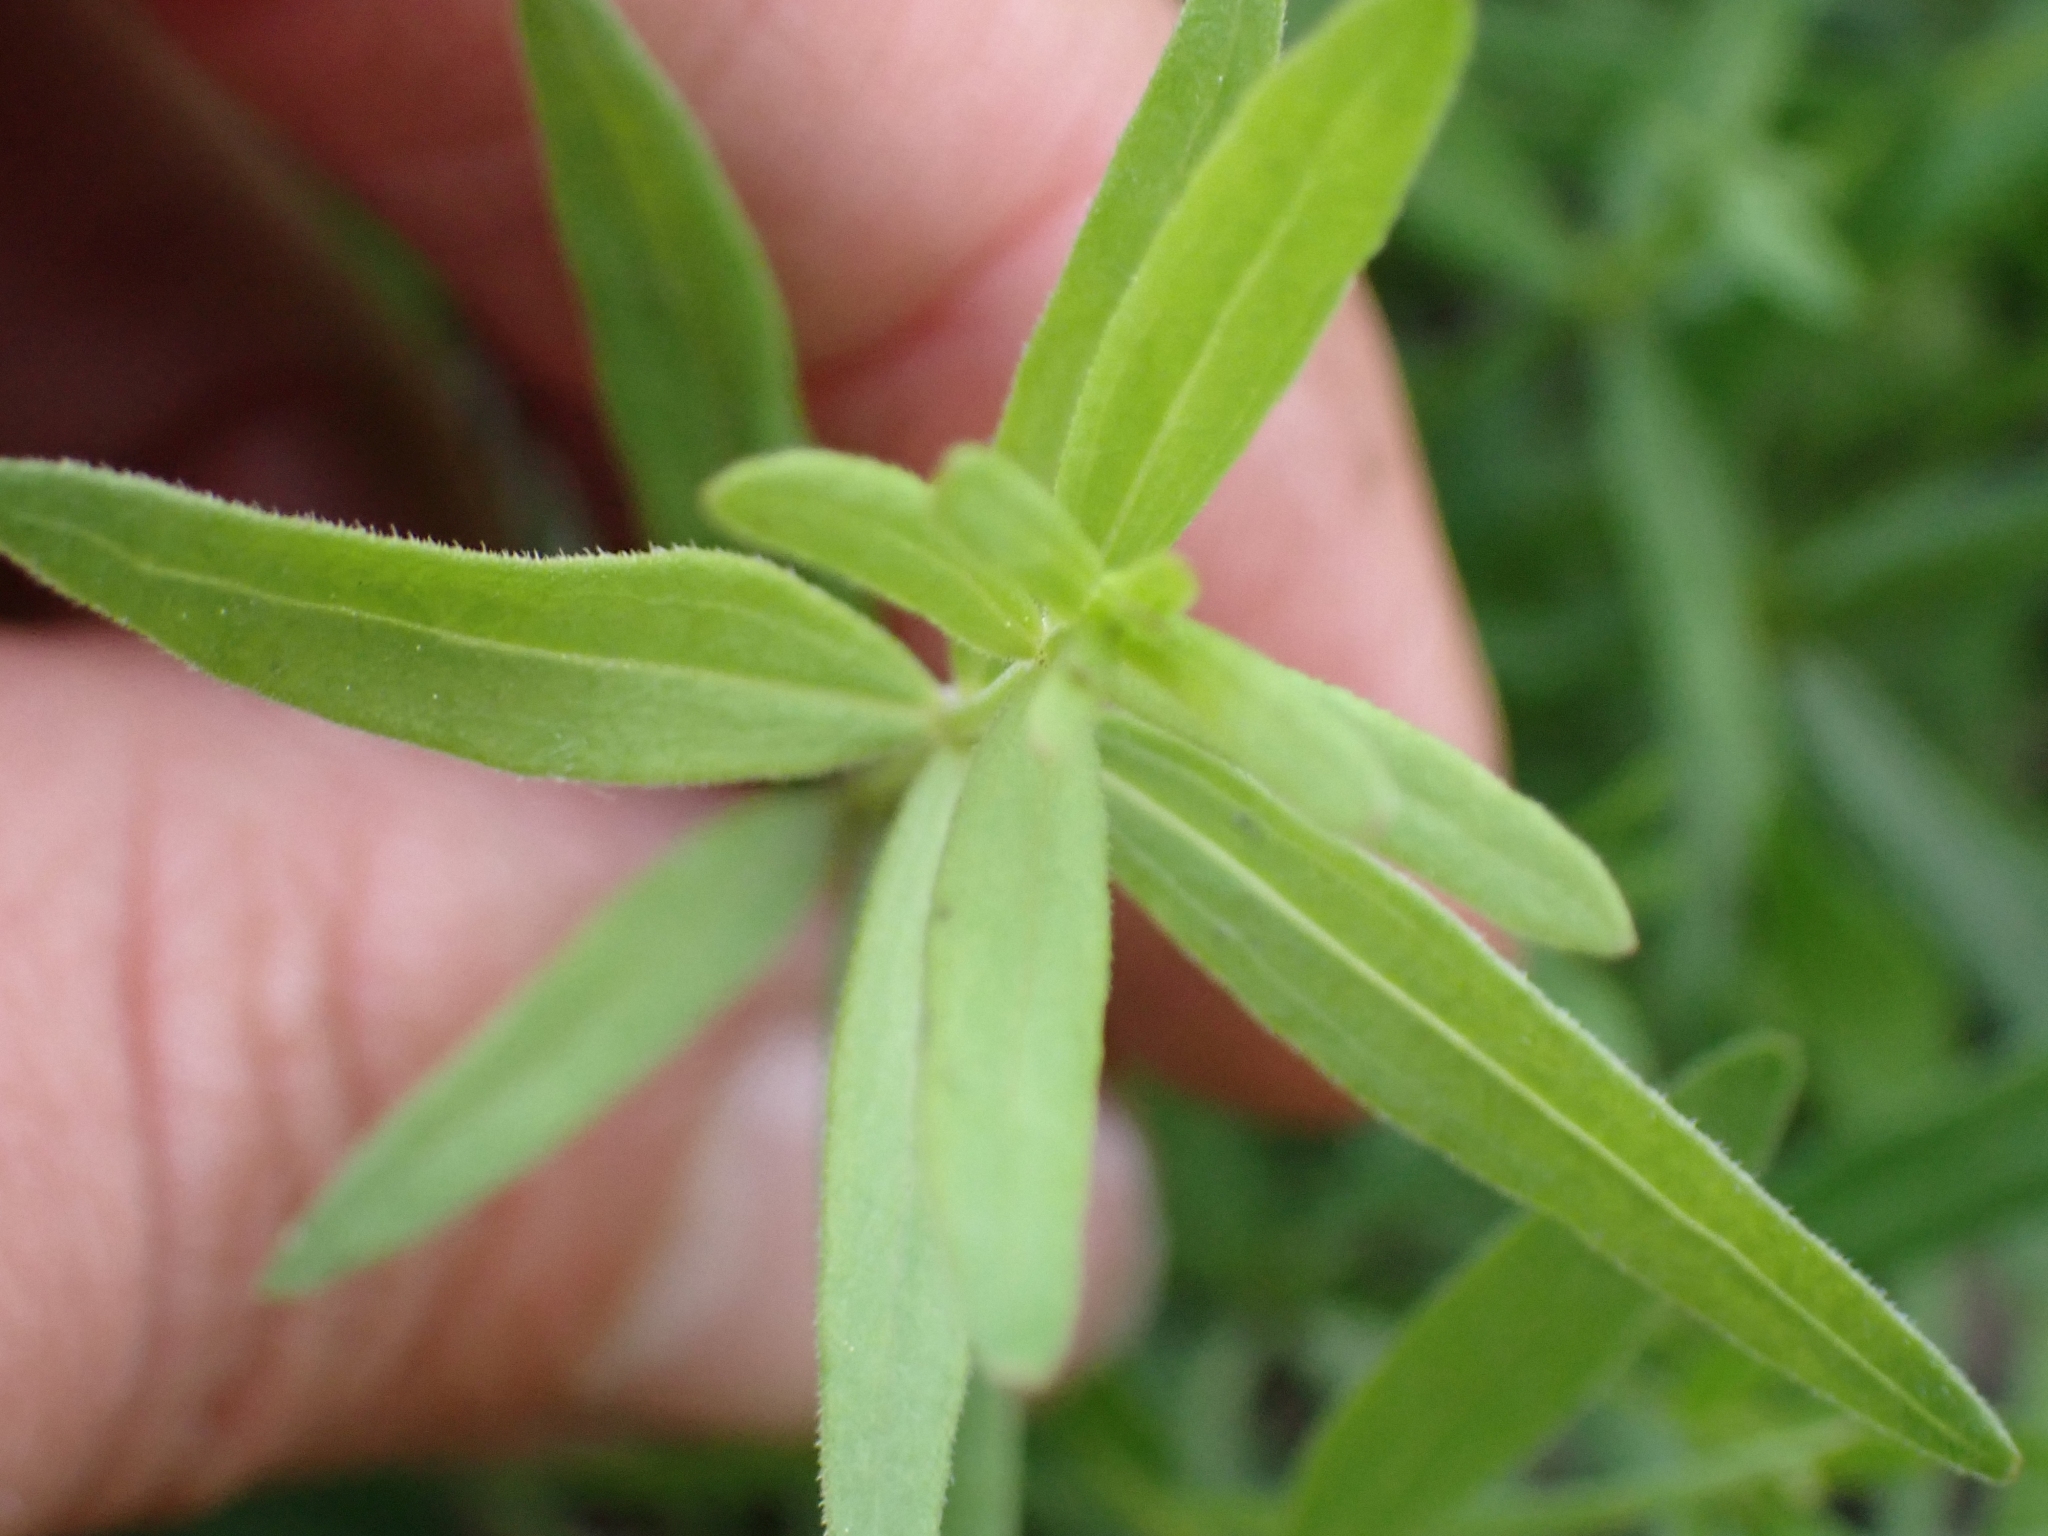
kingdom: Plantae
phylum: Tracheophyta
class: Magnoliopsida
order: Gentianales
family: Rubiaceae
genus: Galium
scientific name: Galium boreale
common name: Northern bedstraw
